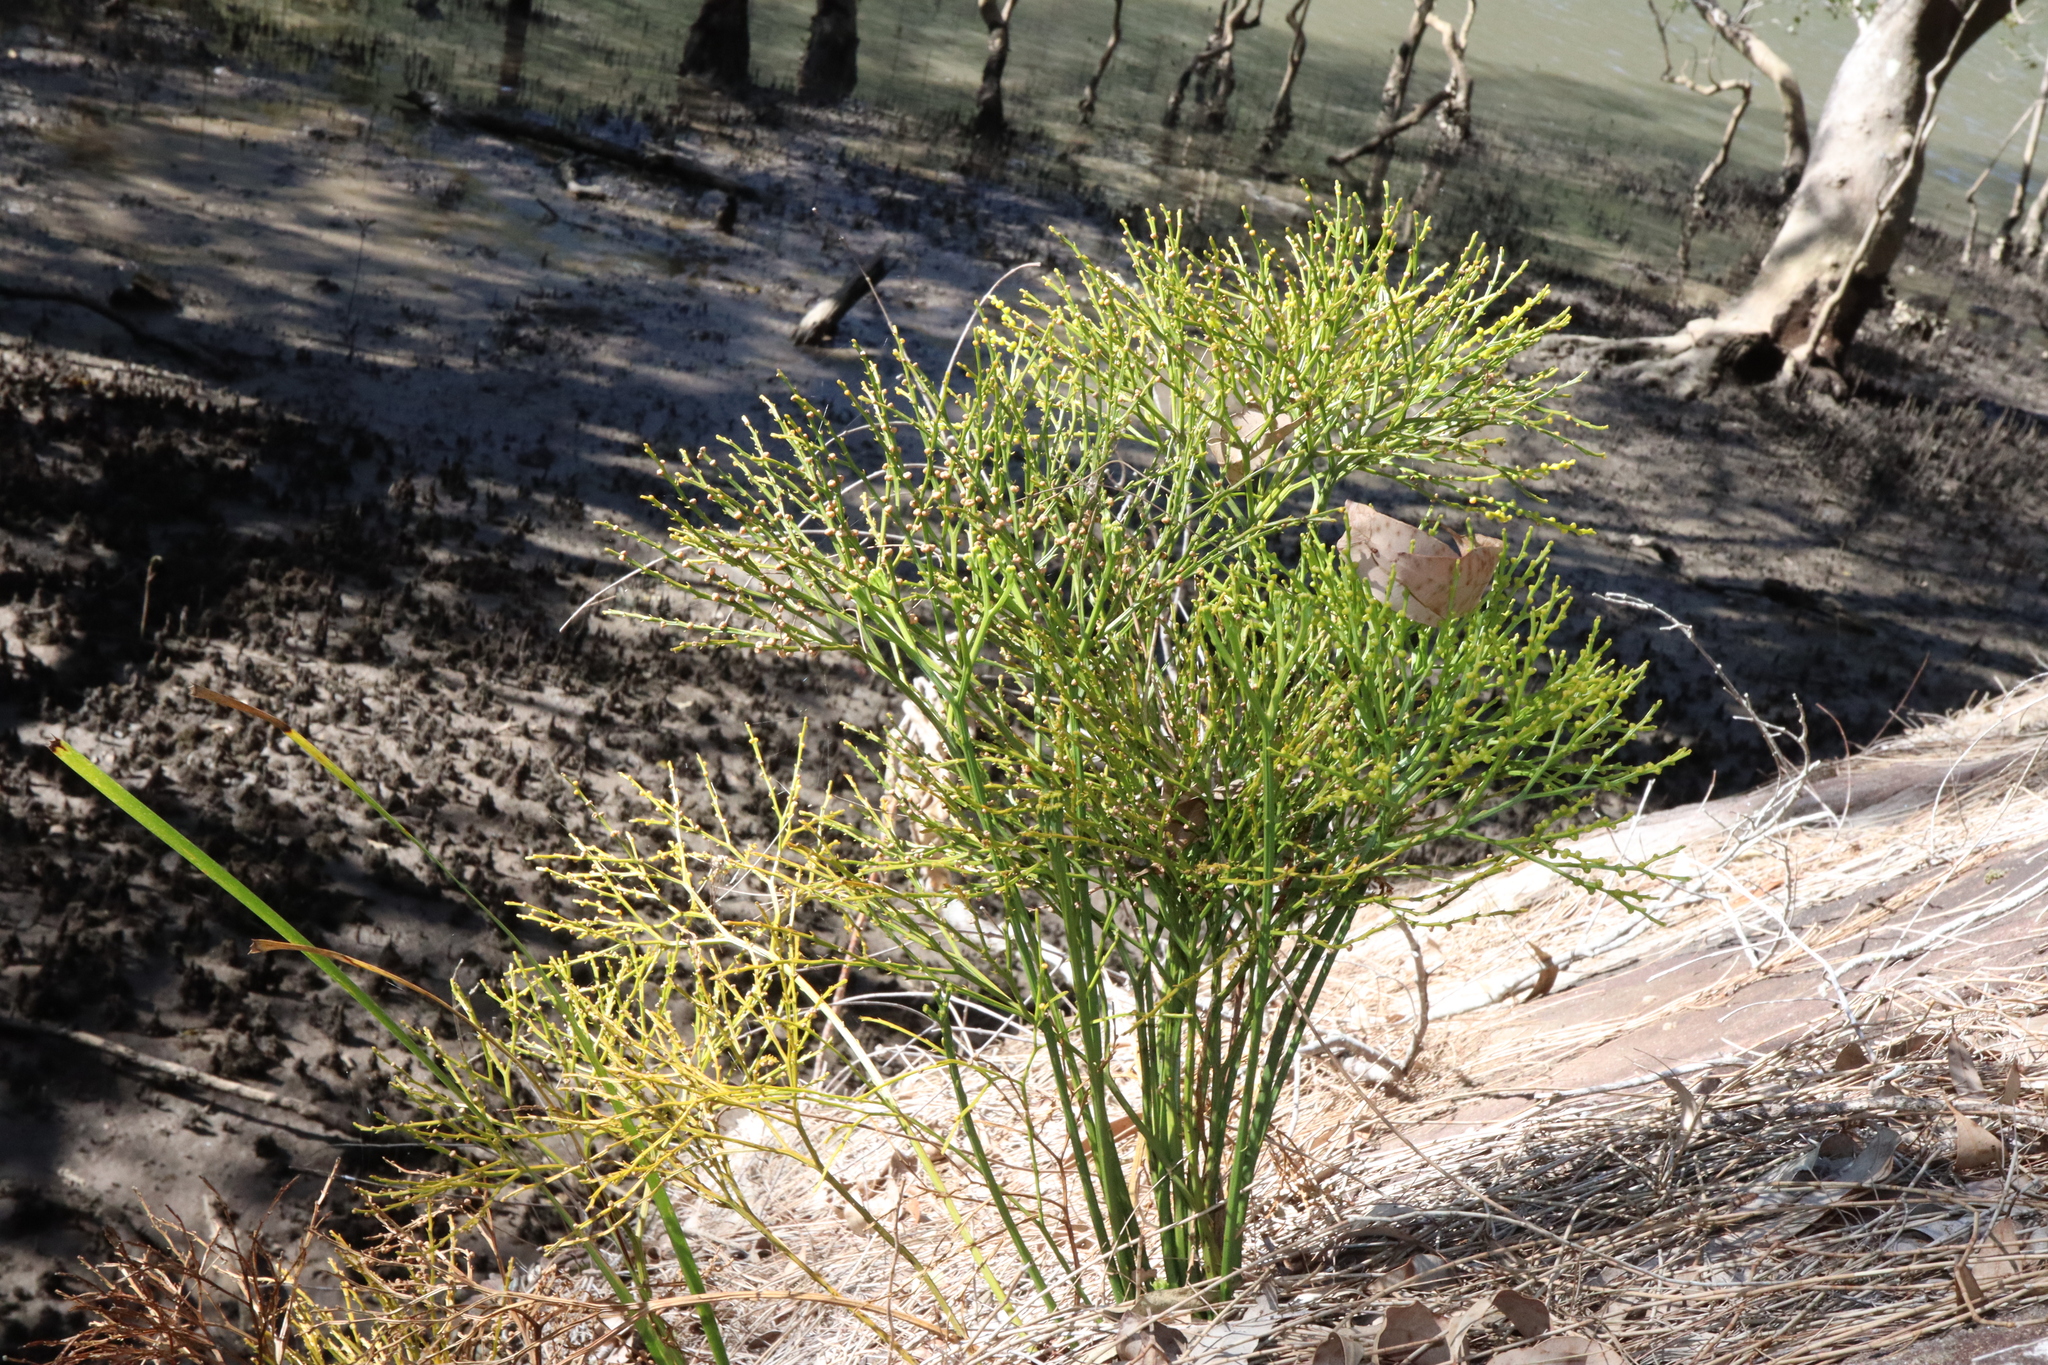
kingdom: Plantae
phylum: Tracheophyta
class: Polypodiopsida
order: Psilotales
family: Psilotaceae
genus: Psilotum
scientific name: Psilotum nudum
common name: Skeleton fork fern
